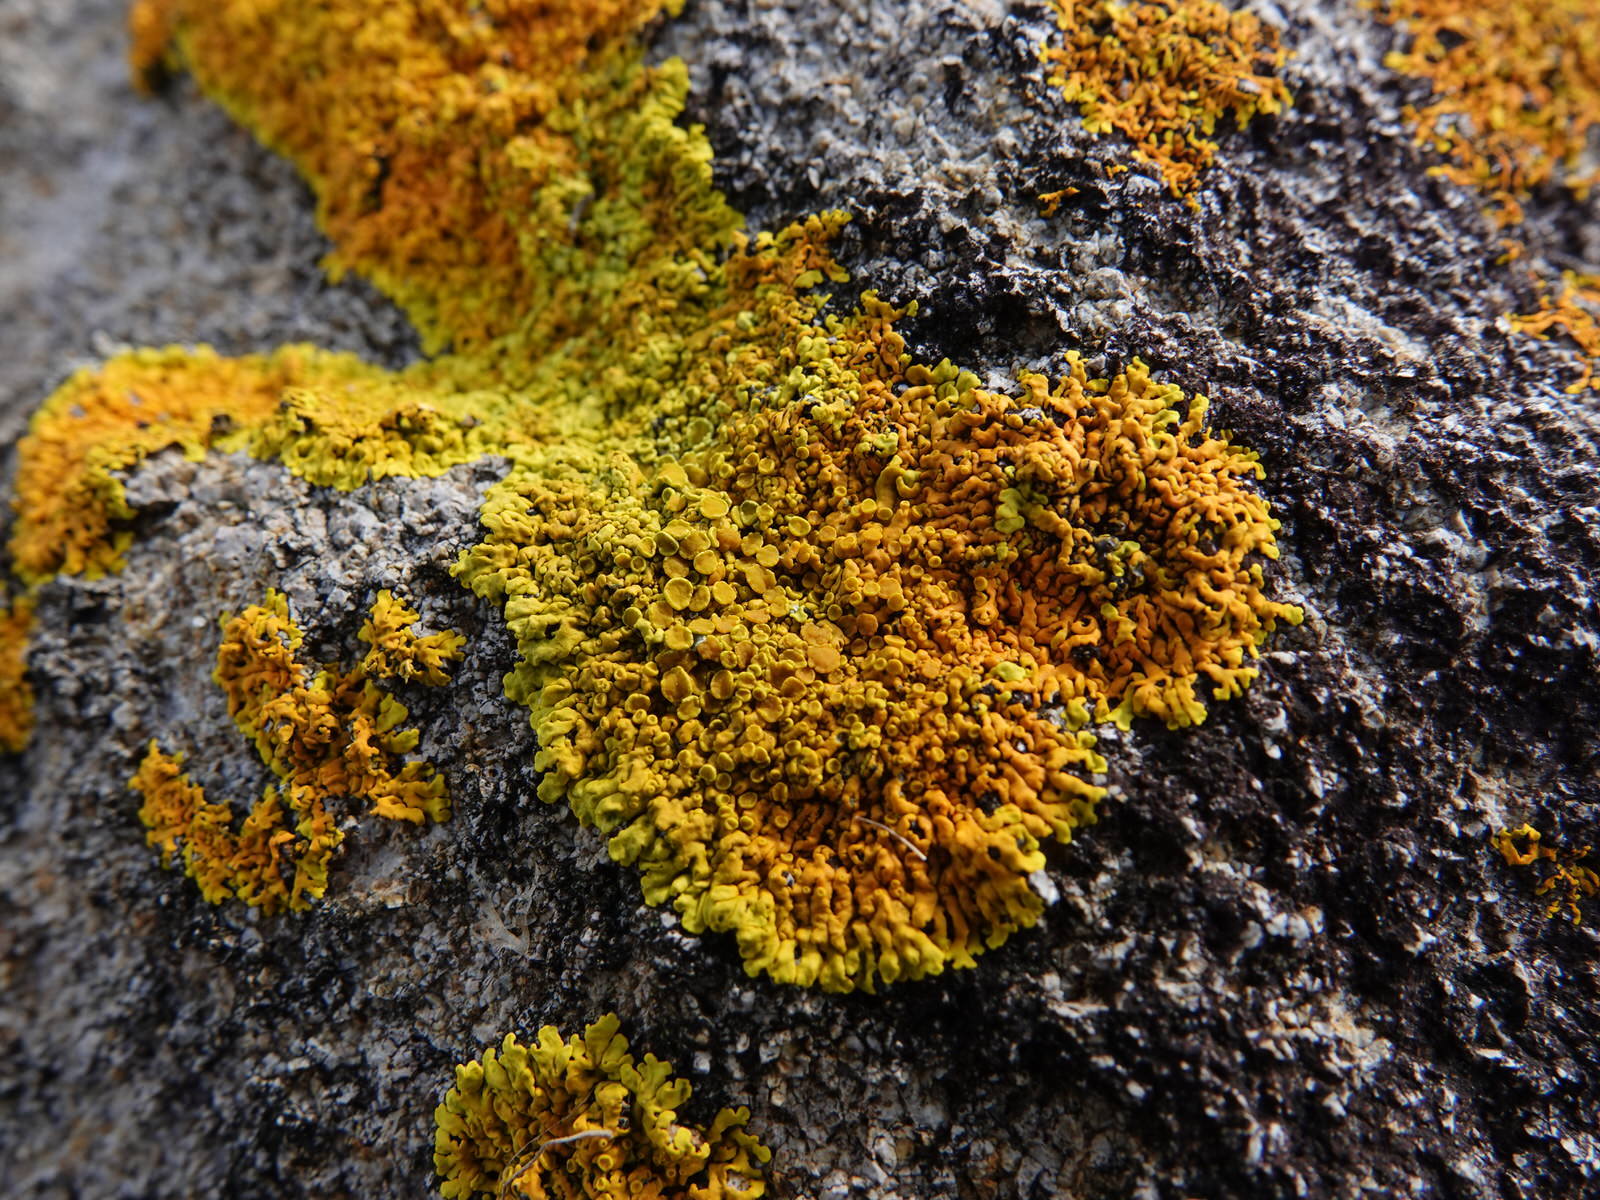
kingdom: Fungi
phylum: Ascomycota
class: Lecanoromycetes
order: Teloschistales
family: Teloschistaceae
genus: Xanthoria
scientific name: Xanthoria parietina
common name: Common orange lichen
